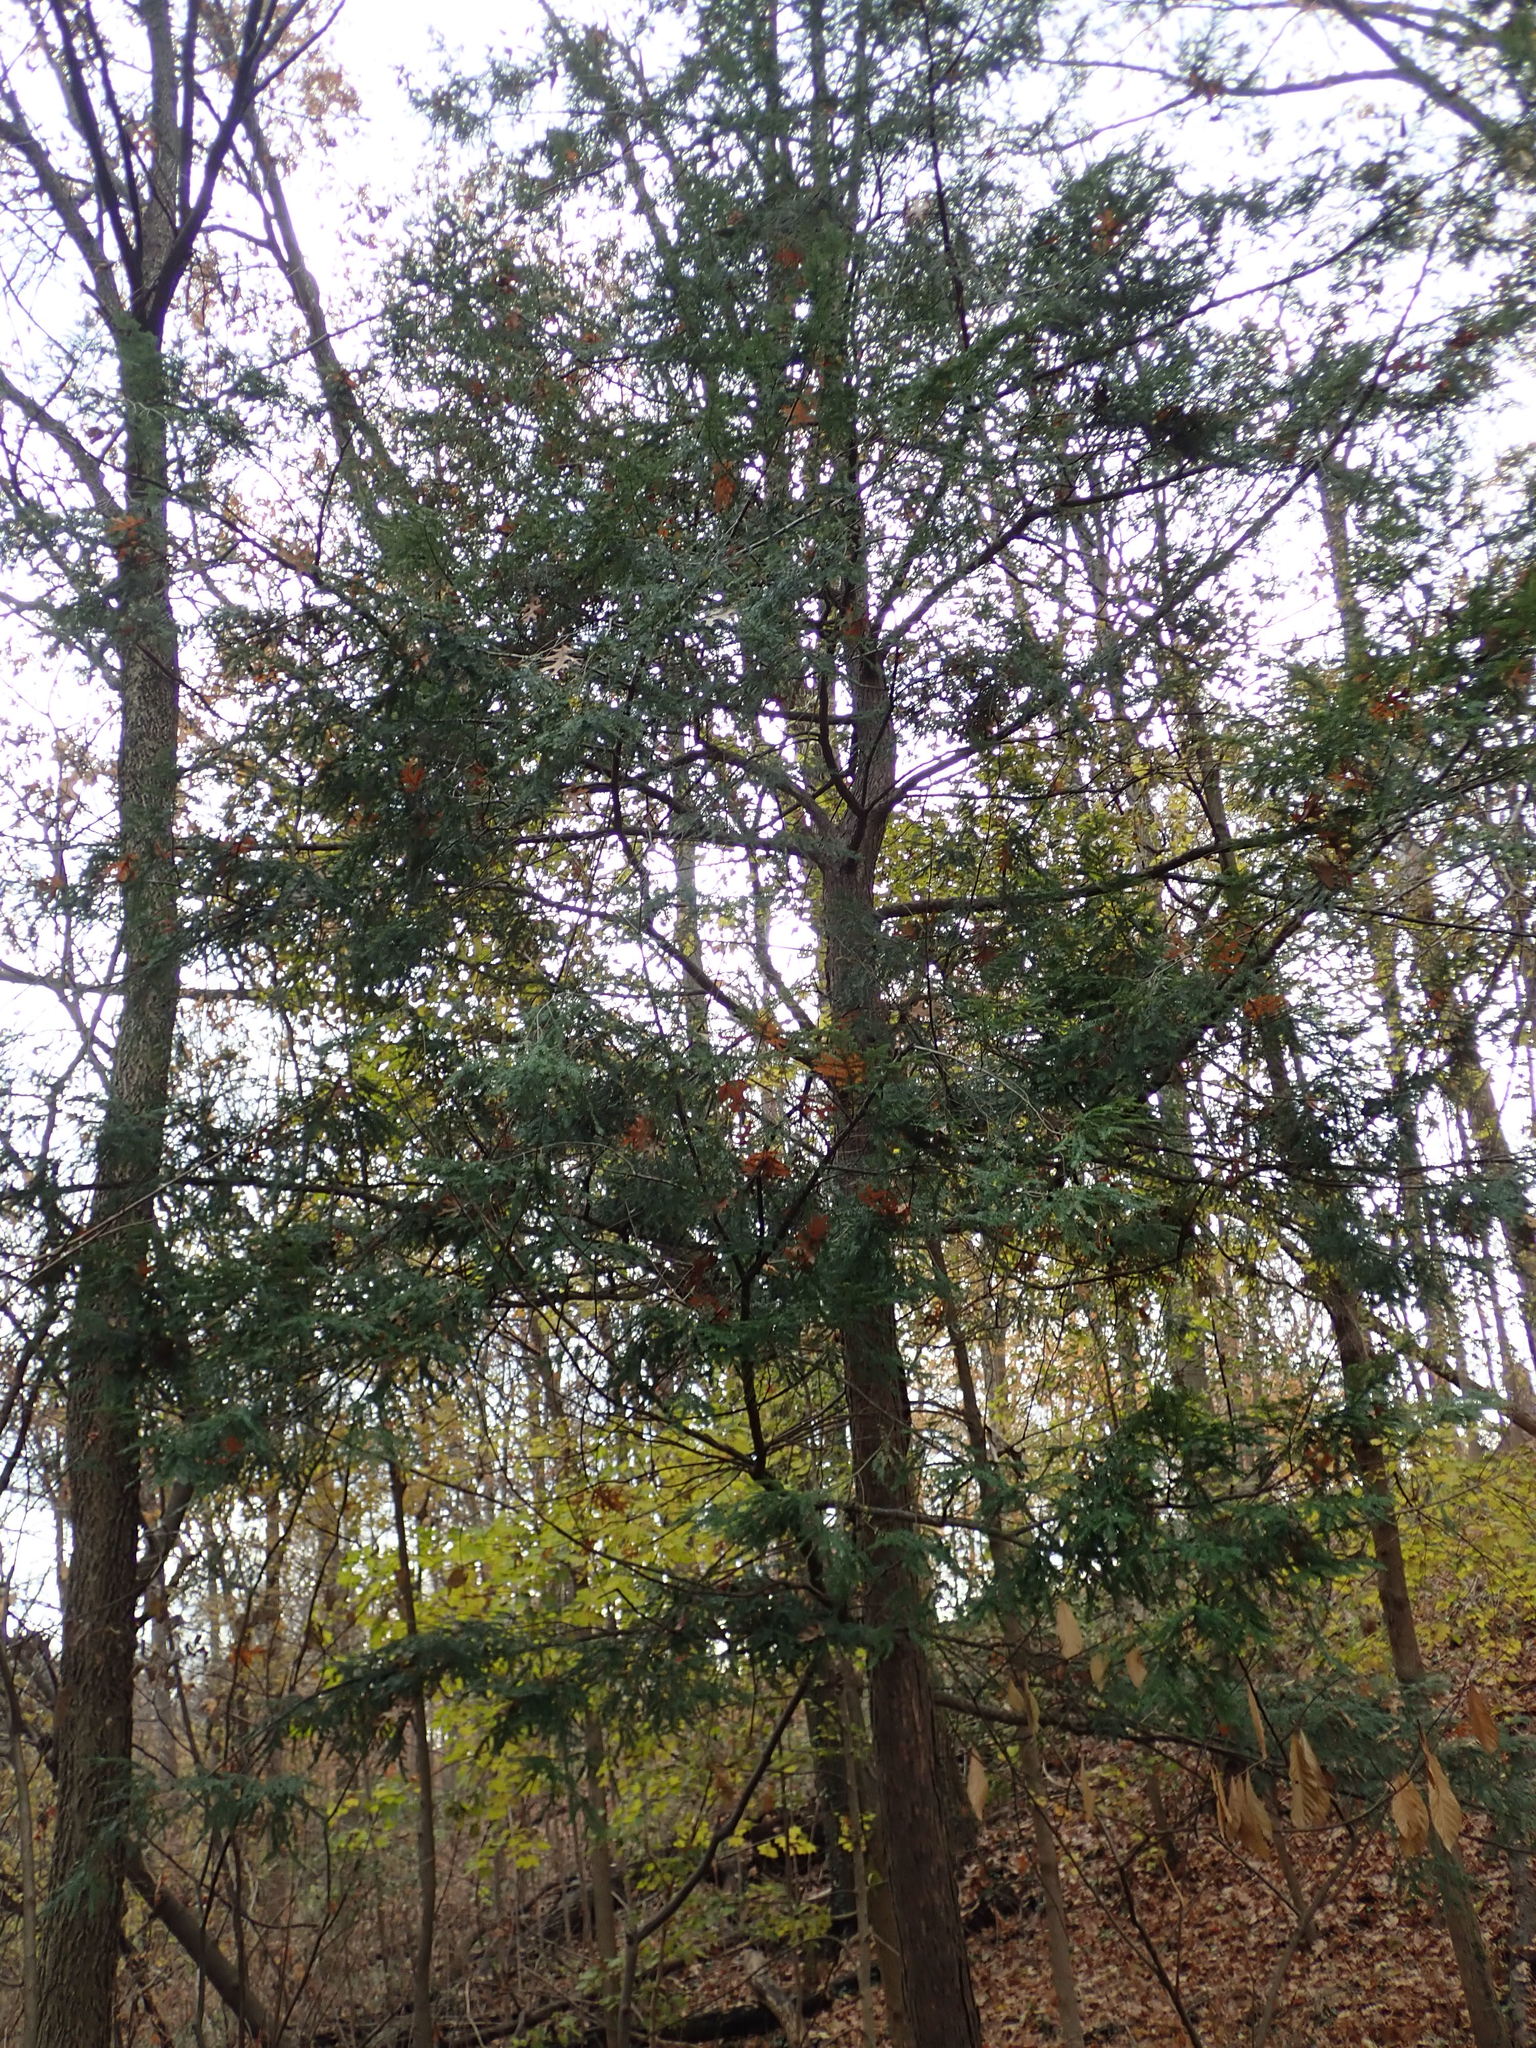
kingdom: Plantae
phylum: Tracheophyta
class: Pinopsida
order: Pinales
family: Pinaceae
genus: Tsuga
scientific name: Tsuga canadensis
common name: Eastern hemlock
